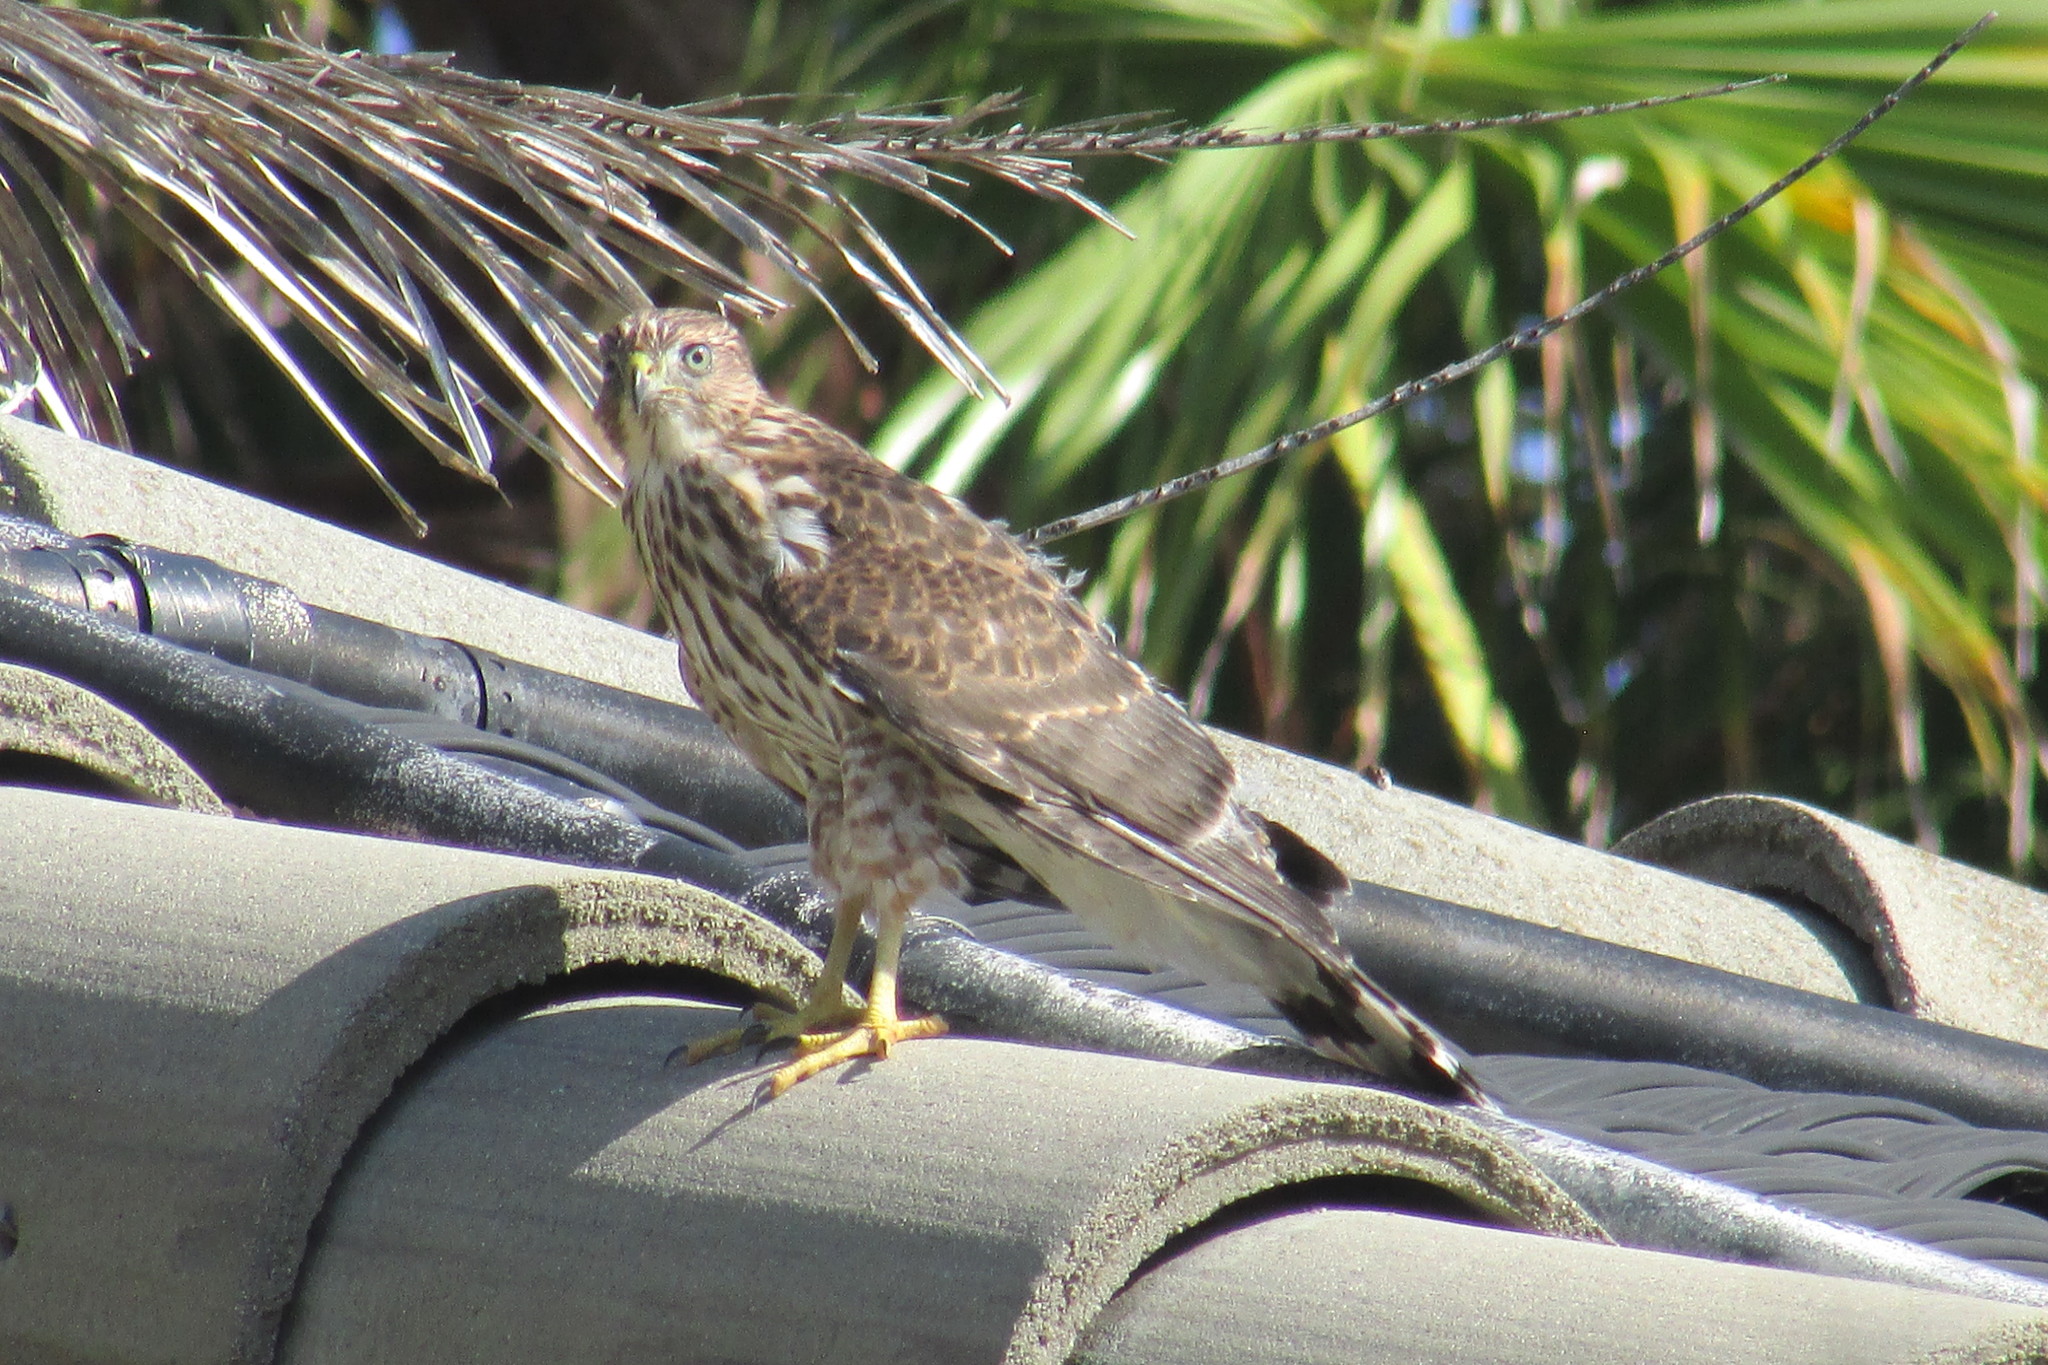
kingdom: Animalia
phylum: Chordata
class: Aves
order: Accipitriformes
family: Accipitridae
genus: Accipiter
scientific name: Accipiter cooperii
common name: Cooper's hawk
